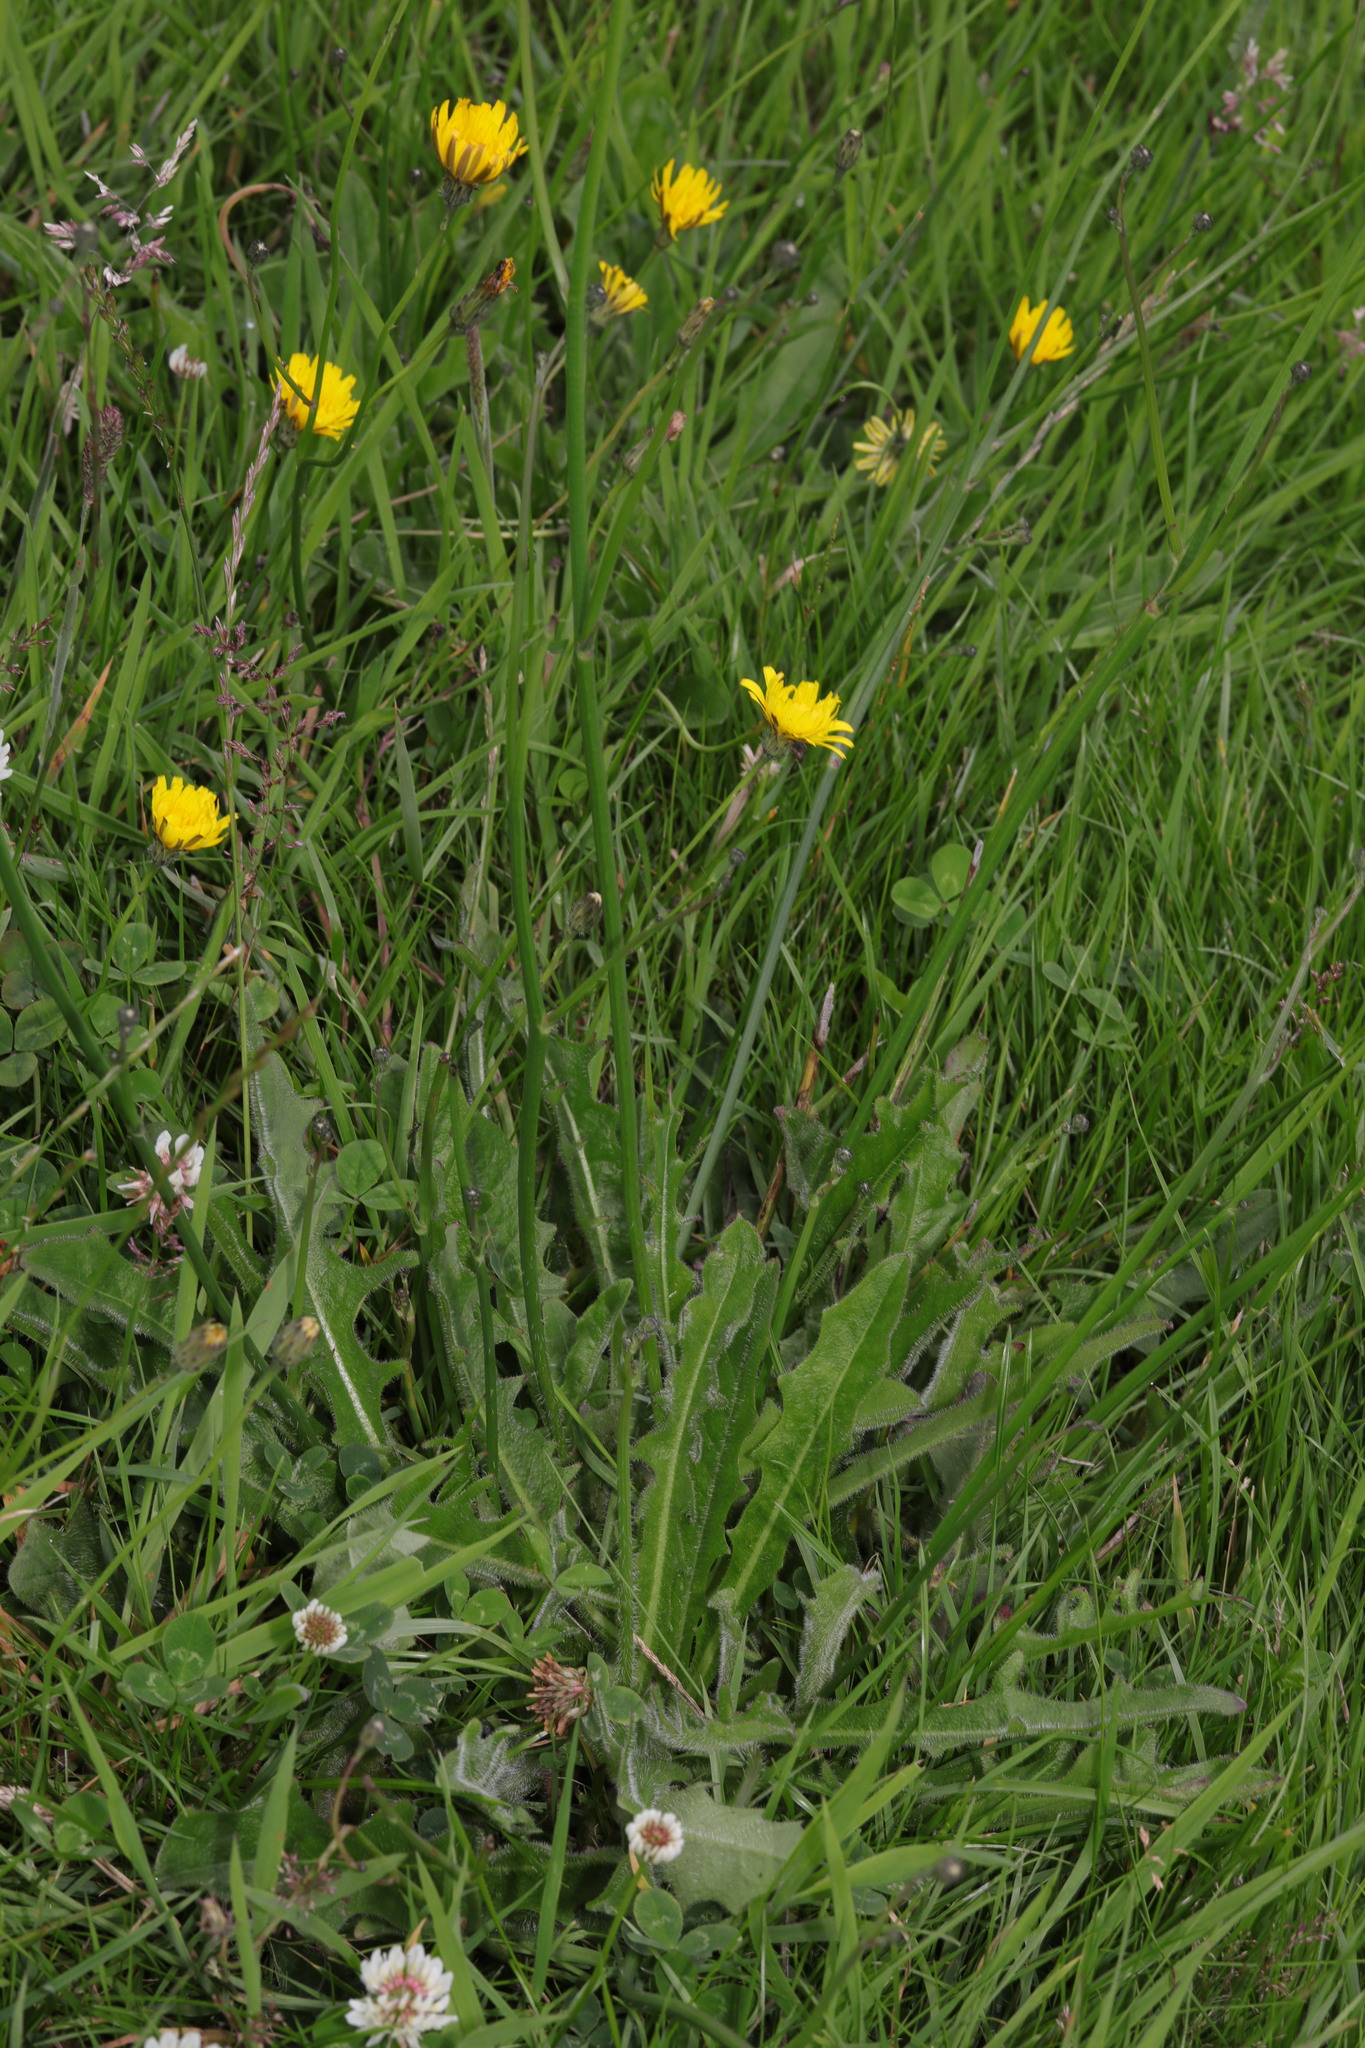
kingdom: Plantae
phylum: Tracheophyta
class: Magnoliopsida
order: Asterales
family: Asteraceae
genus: Scorzoneroides
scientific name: Scorzoneroides autumnalis
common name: Autumn hawkbit
